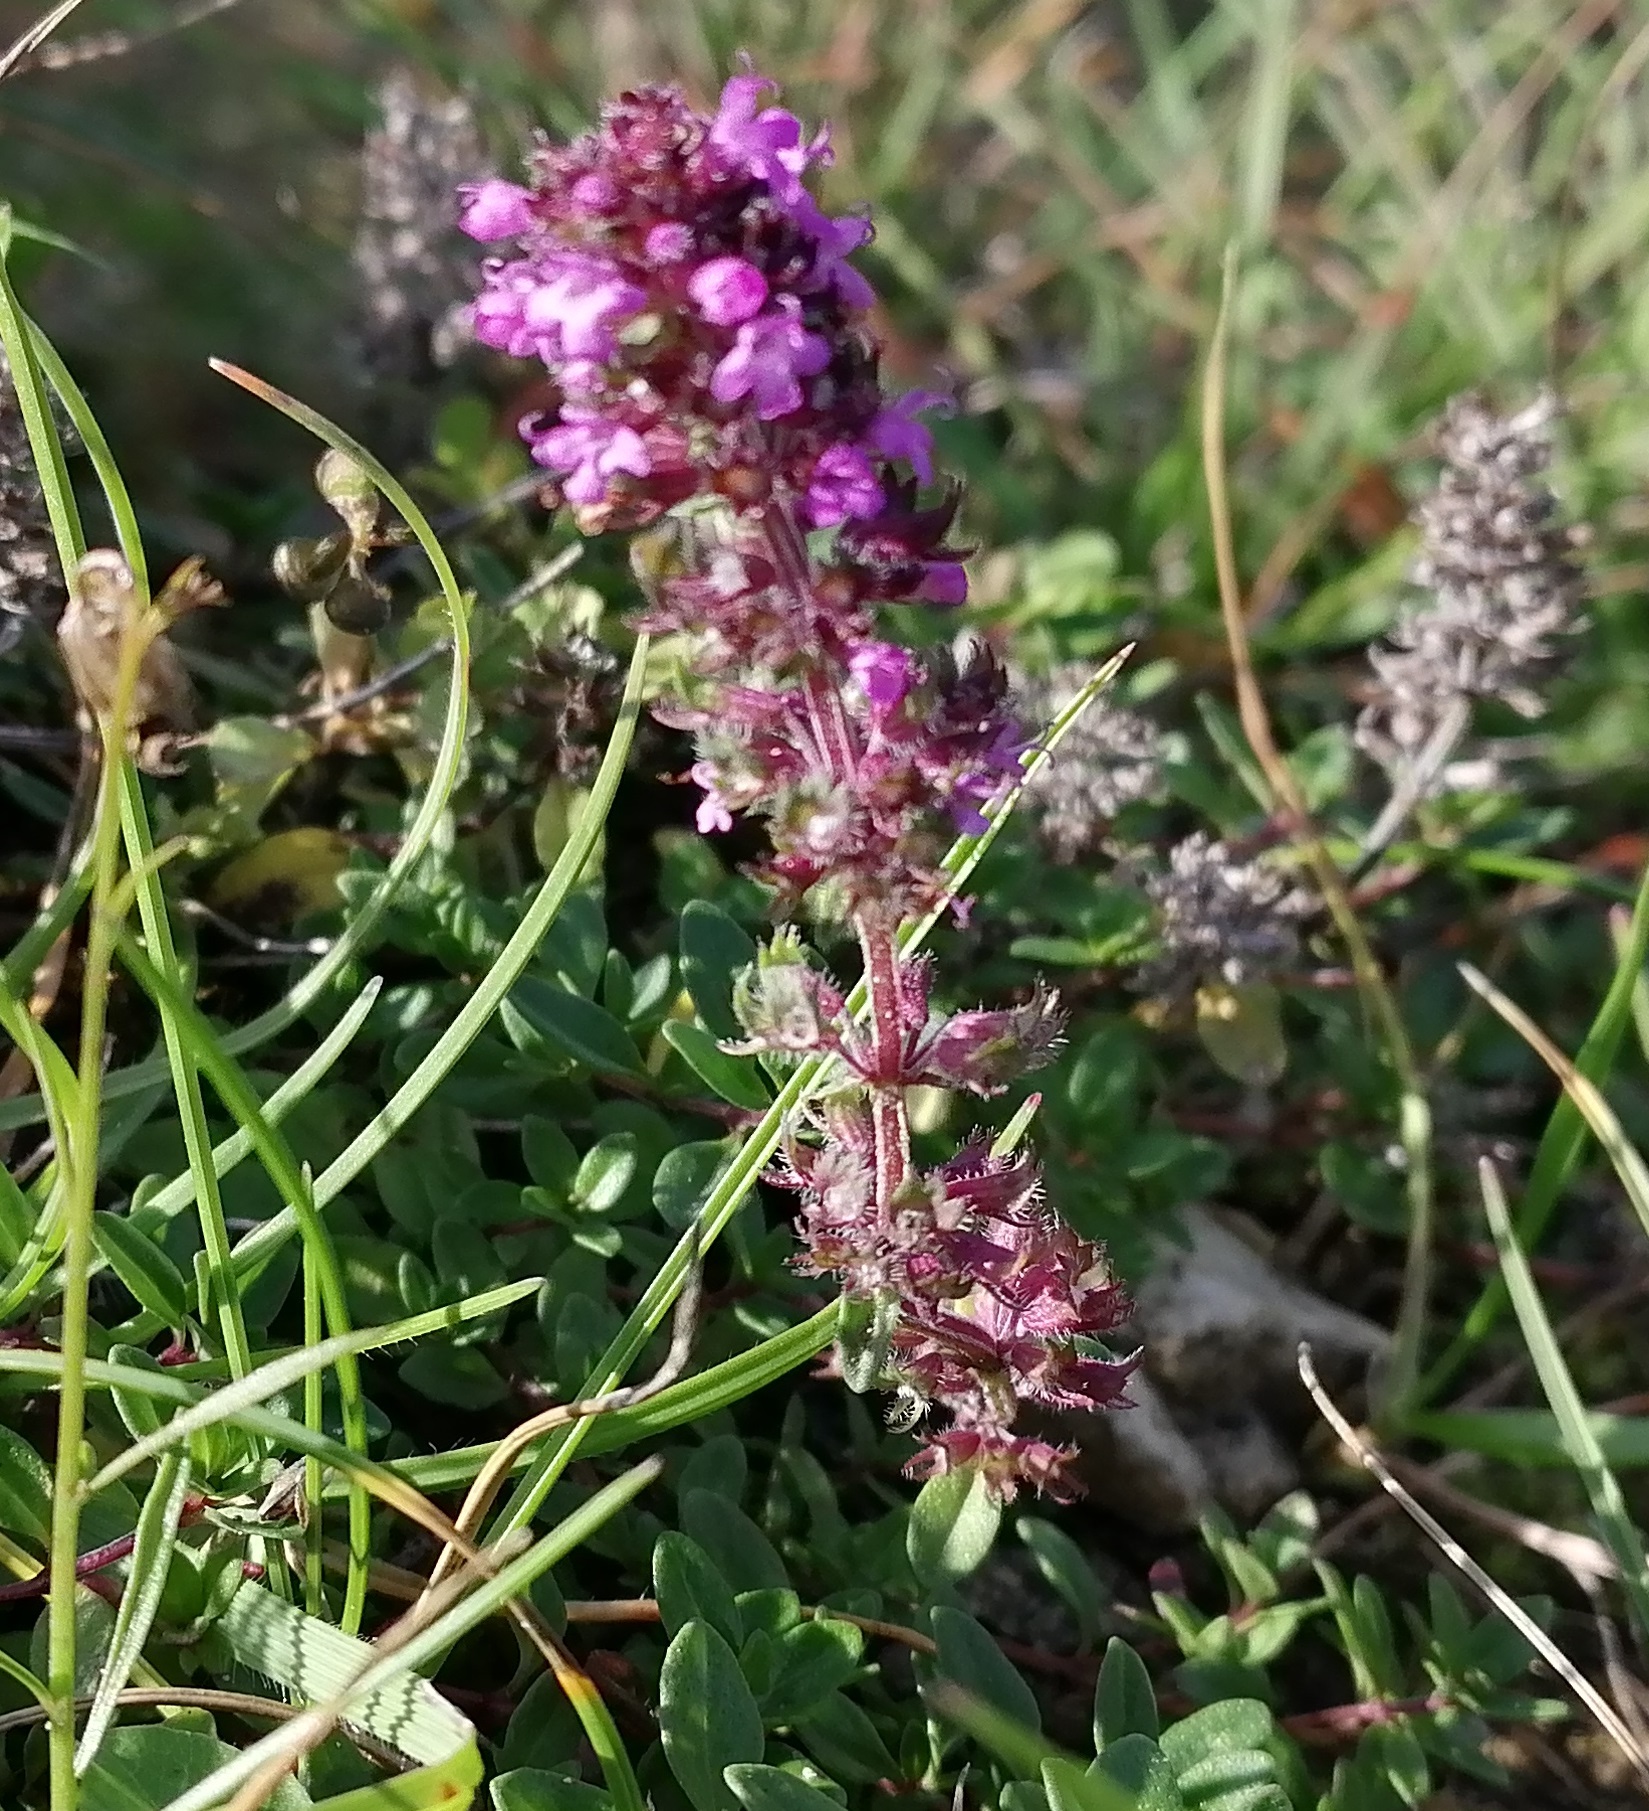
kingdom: Plantae
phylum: Tracheophyta
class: Magnoliopsida
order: Lamiales
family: Lamiaceae
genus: Thymus
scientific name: Thymus pulegioides
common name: Large thyme
